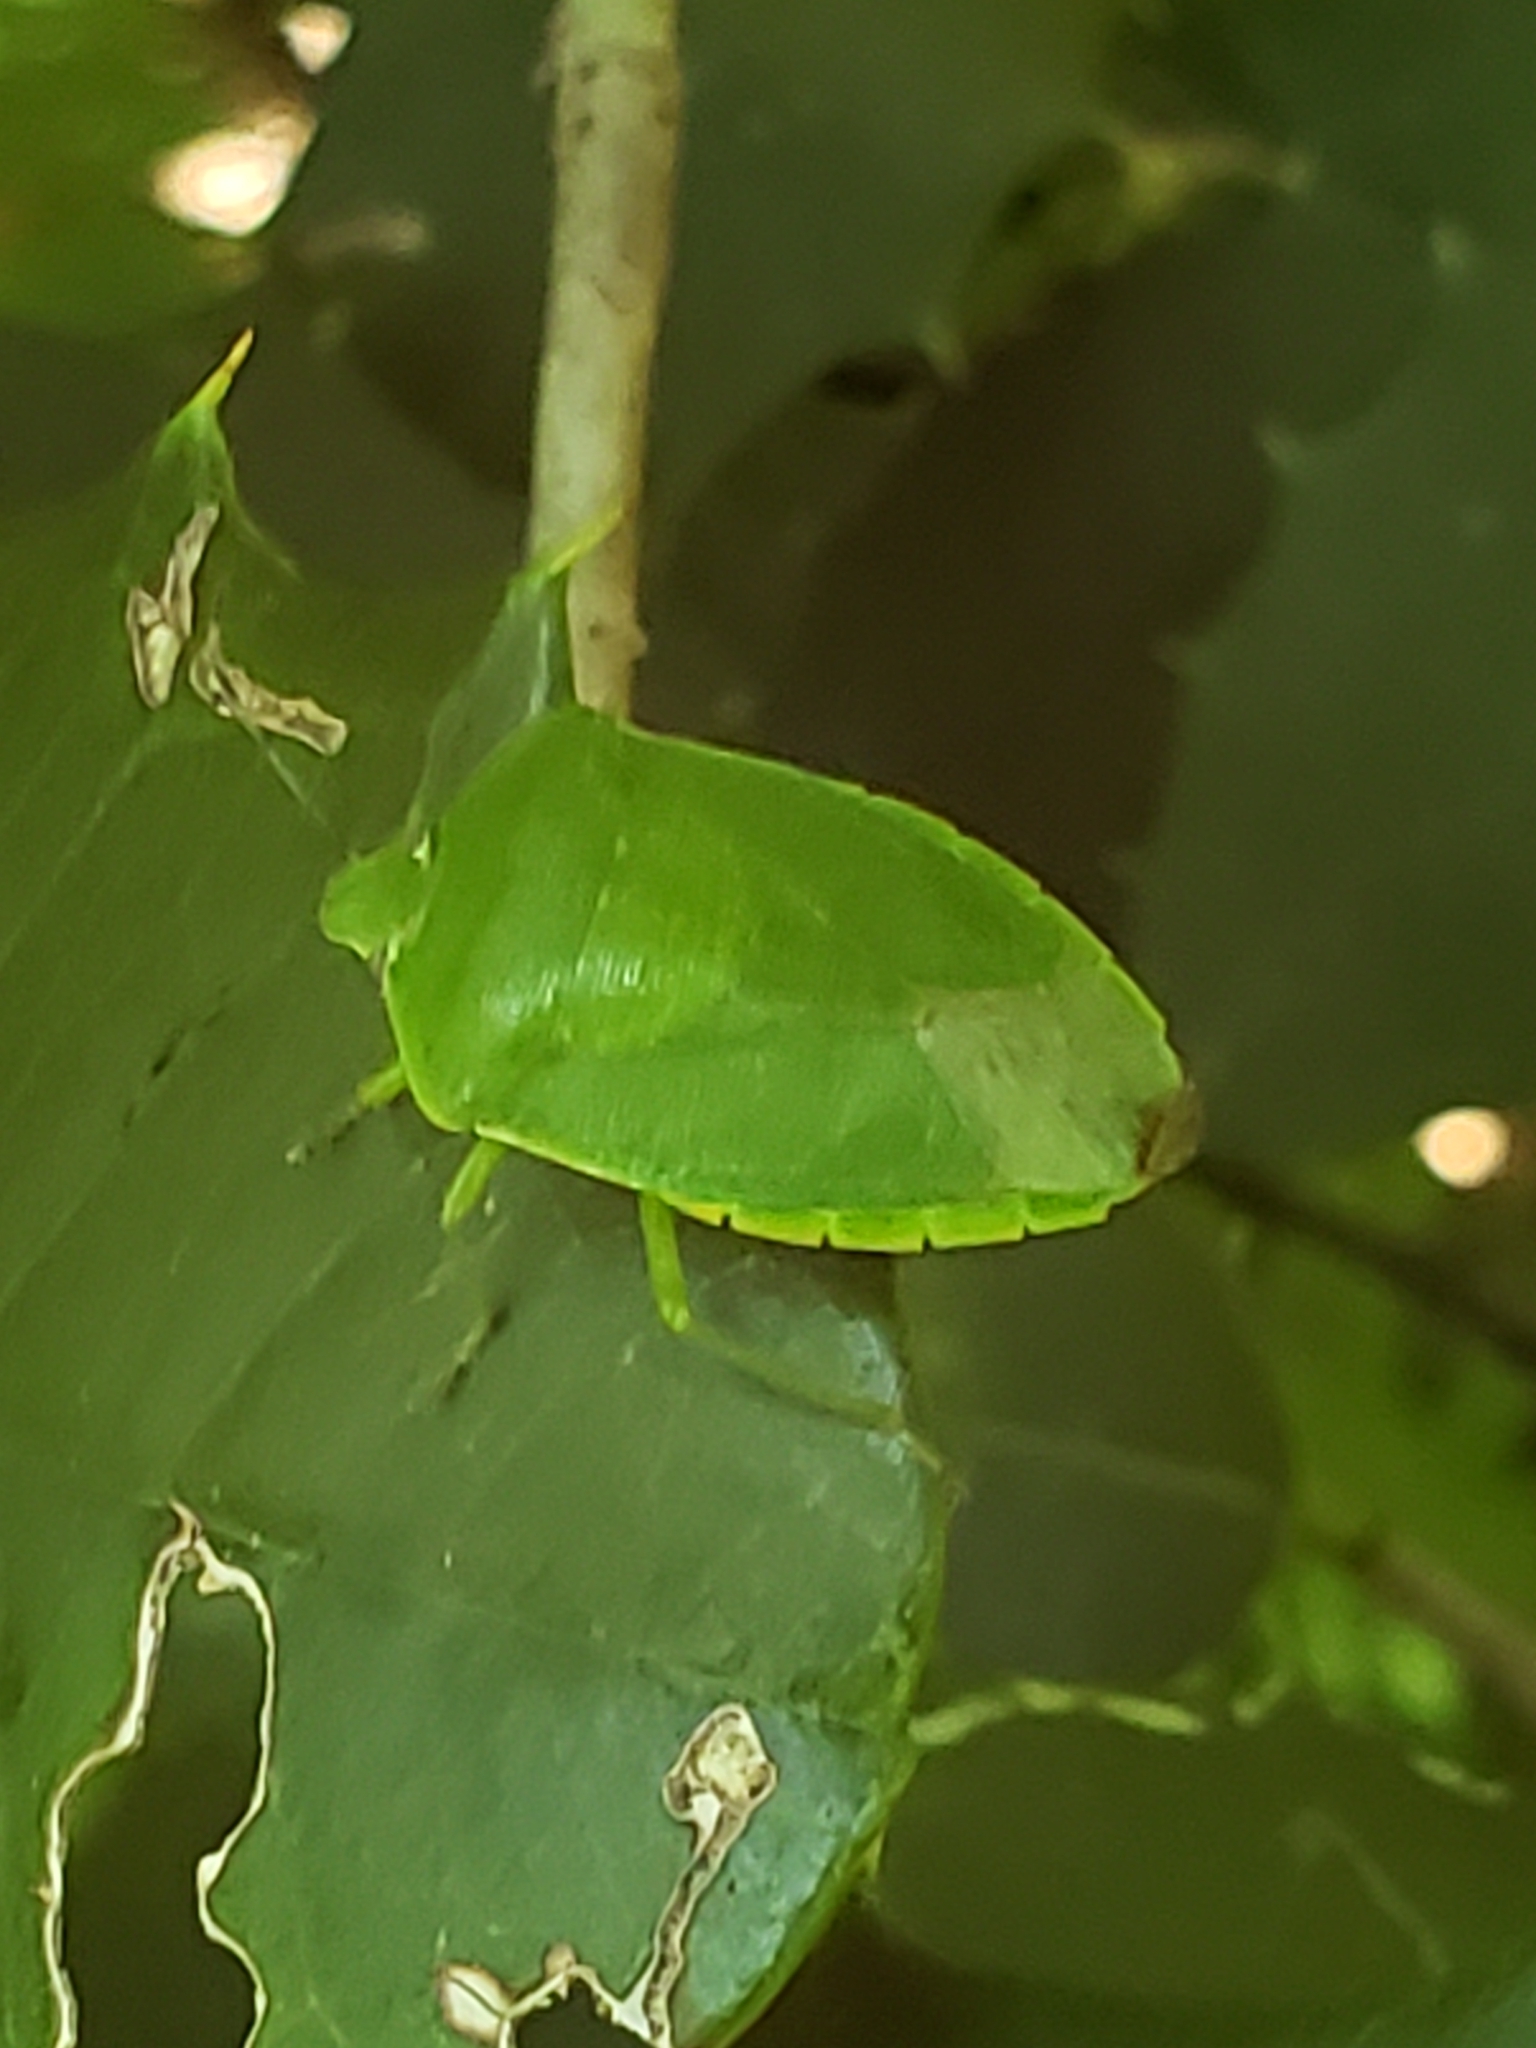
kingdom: Animalia
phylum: Arthropoda
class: Insecta
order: Hemiptera
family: Pentatomidae
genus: Chinavia
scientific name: Chinavia hilaris
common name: Green stink bug
